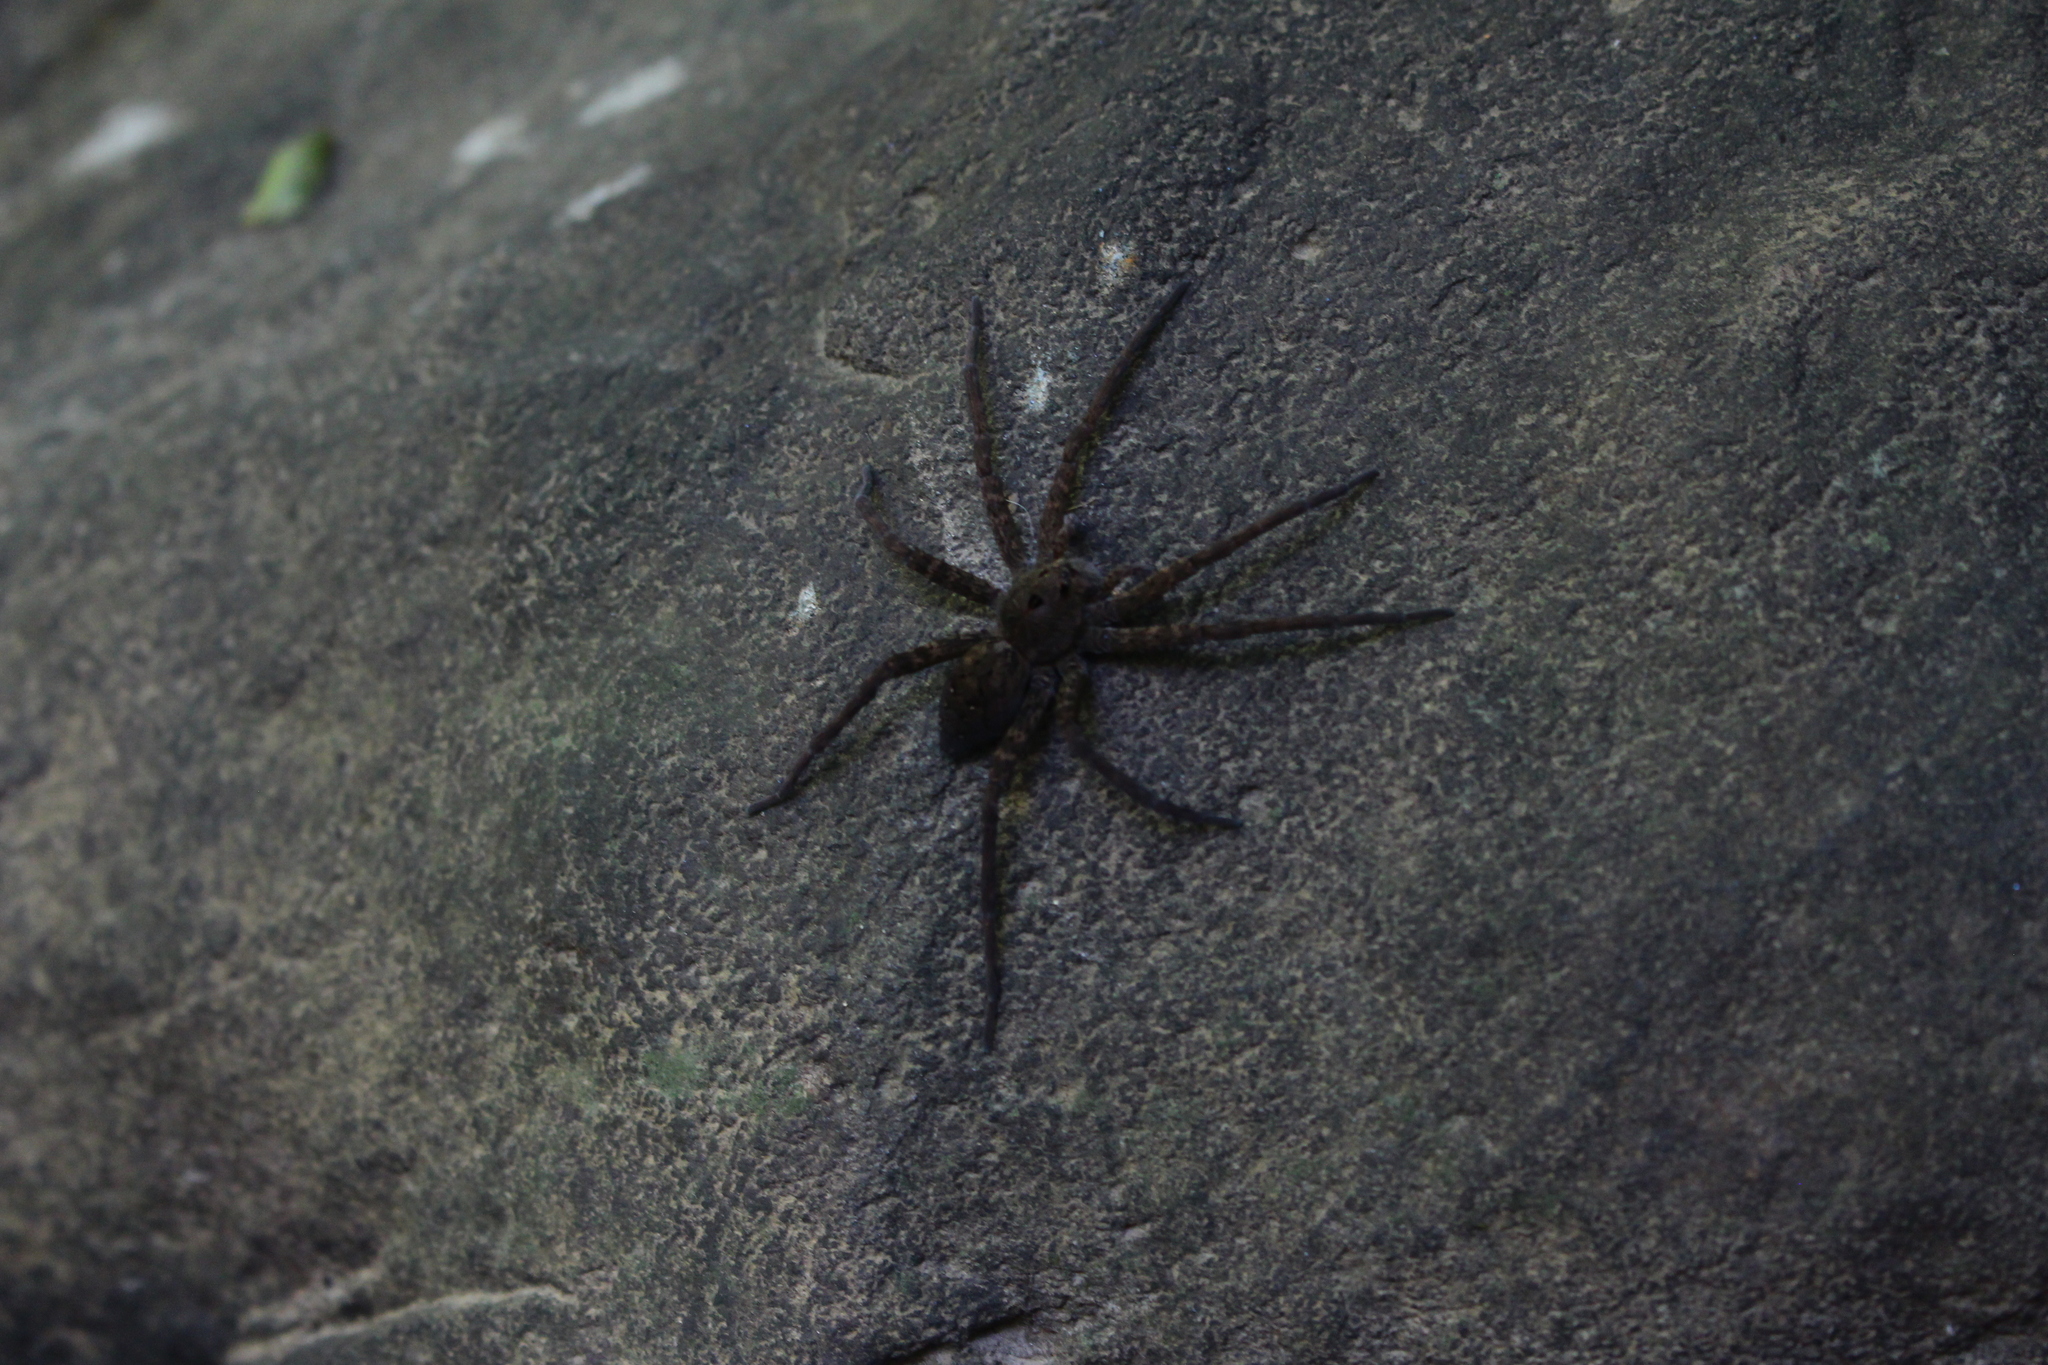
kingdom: Animalia
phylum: Arthropoda
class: Arachnida
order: Araneae
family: Pisauridae
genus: Dolomedes
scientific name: Dolomedes vittatus
